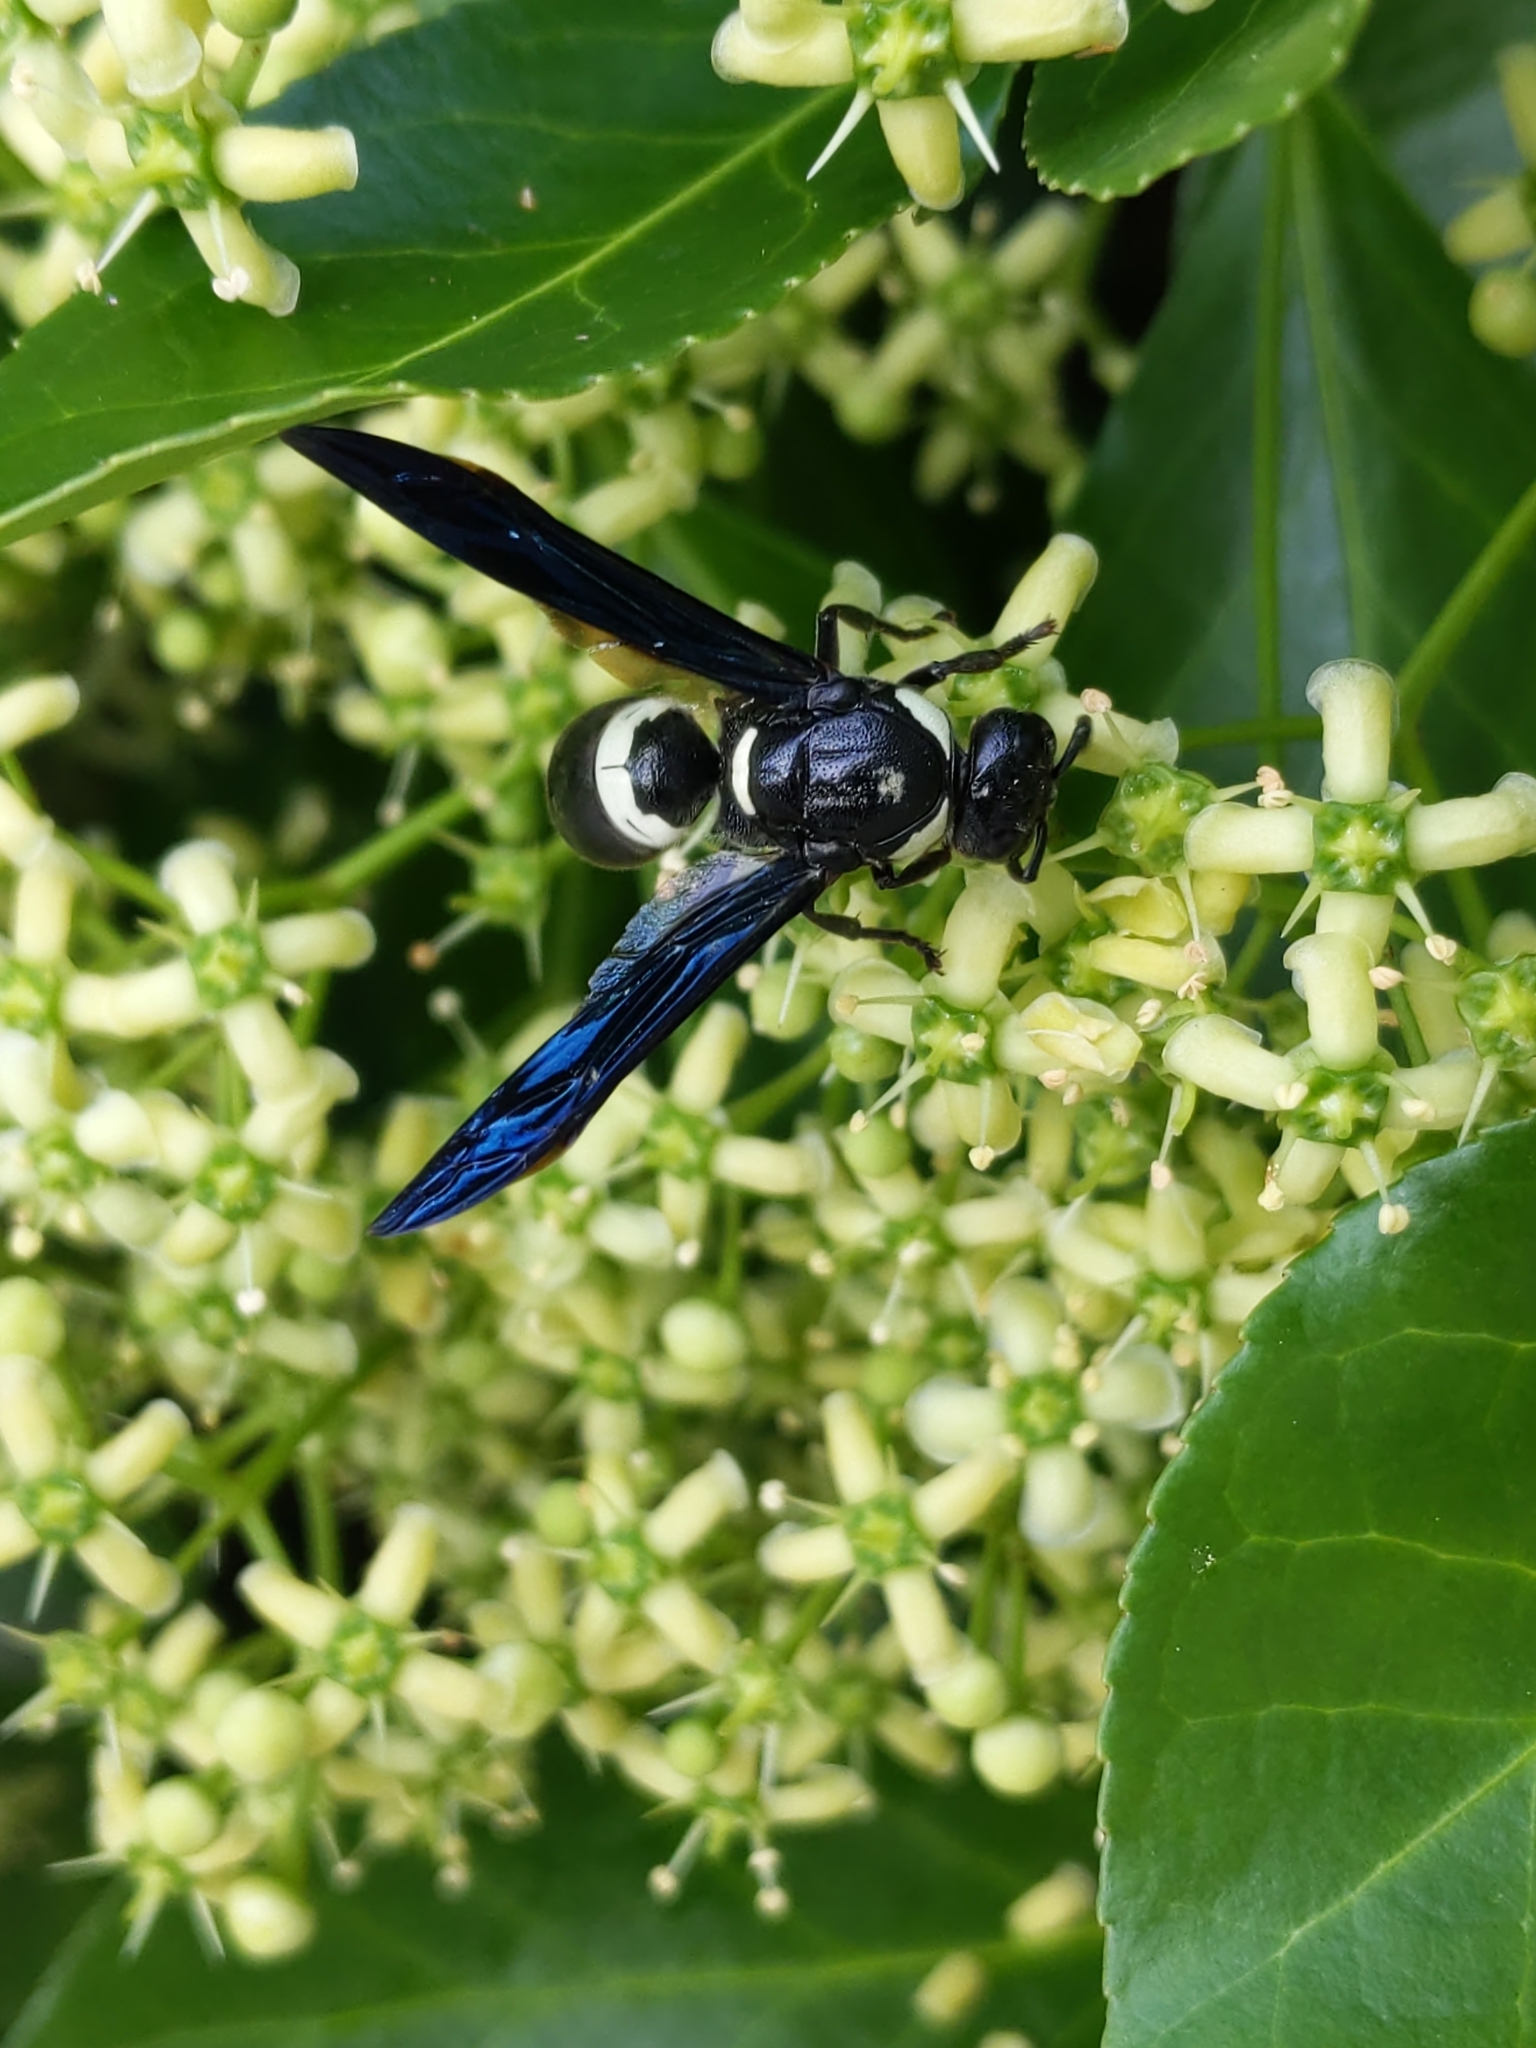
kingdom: Animalia
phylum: Arthropoda
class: Insecta
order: Hymenoptera
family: Eumenidae
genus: Monobia
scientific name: Monobia quadridens
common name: Four-toothed mason wasp
